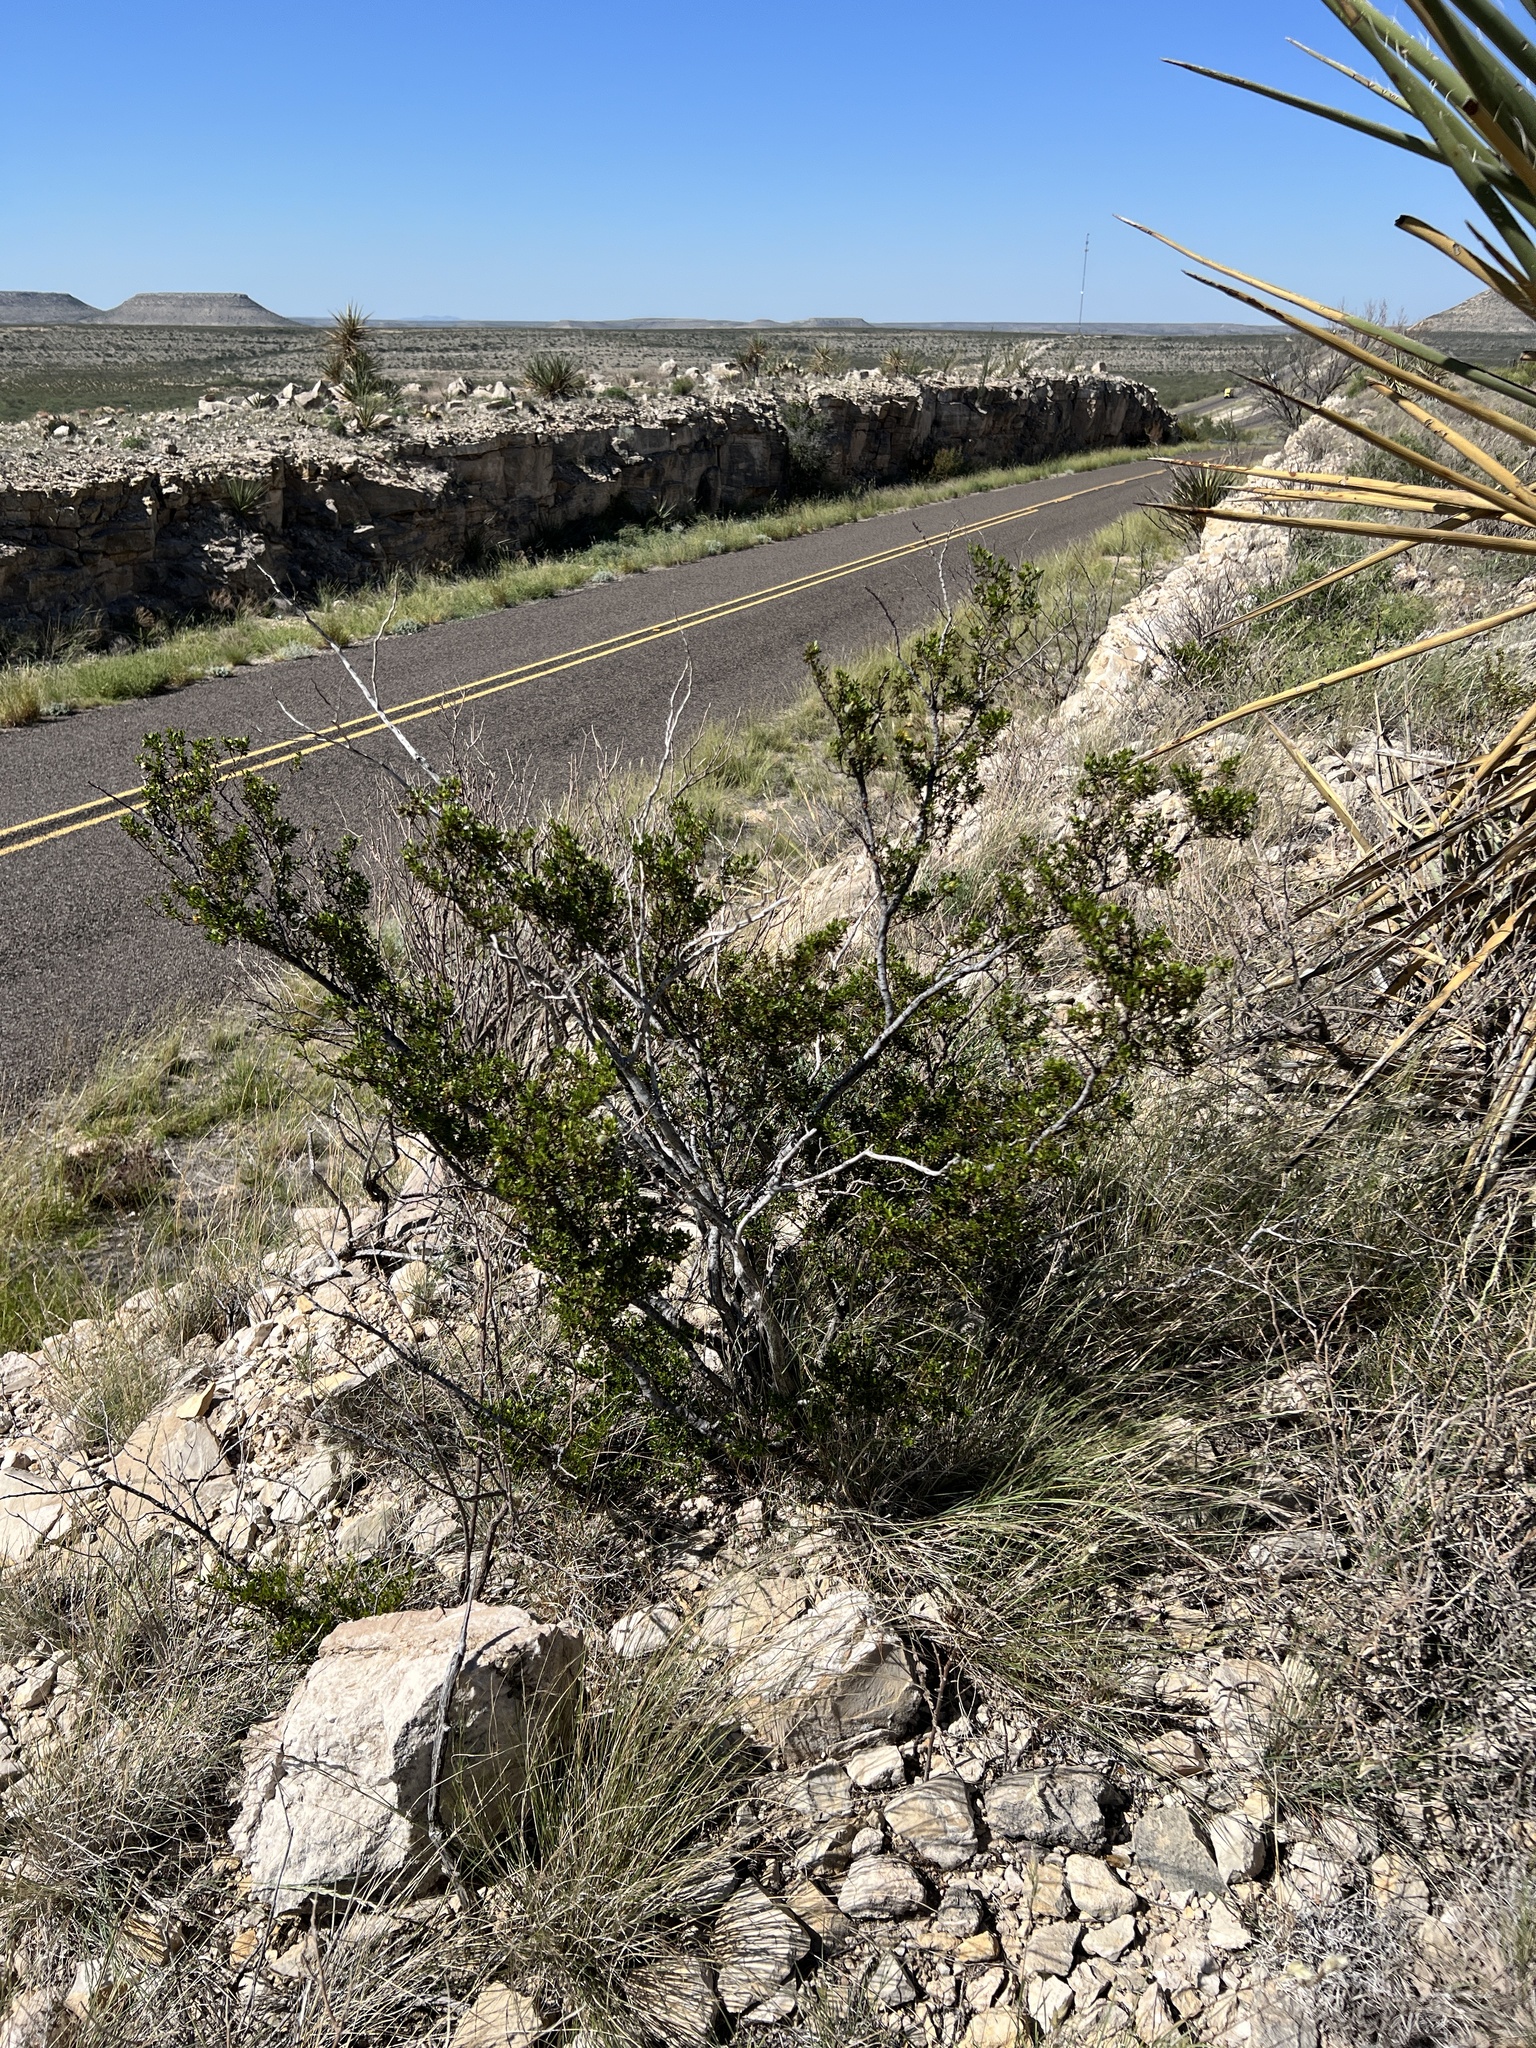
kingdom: Plantae
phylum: Tracheophyta
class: Magnoliopsida
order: Zygophyllales
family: Zygophyllaceae
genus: Larrea
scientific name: Larrea tridentata
